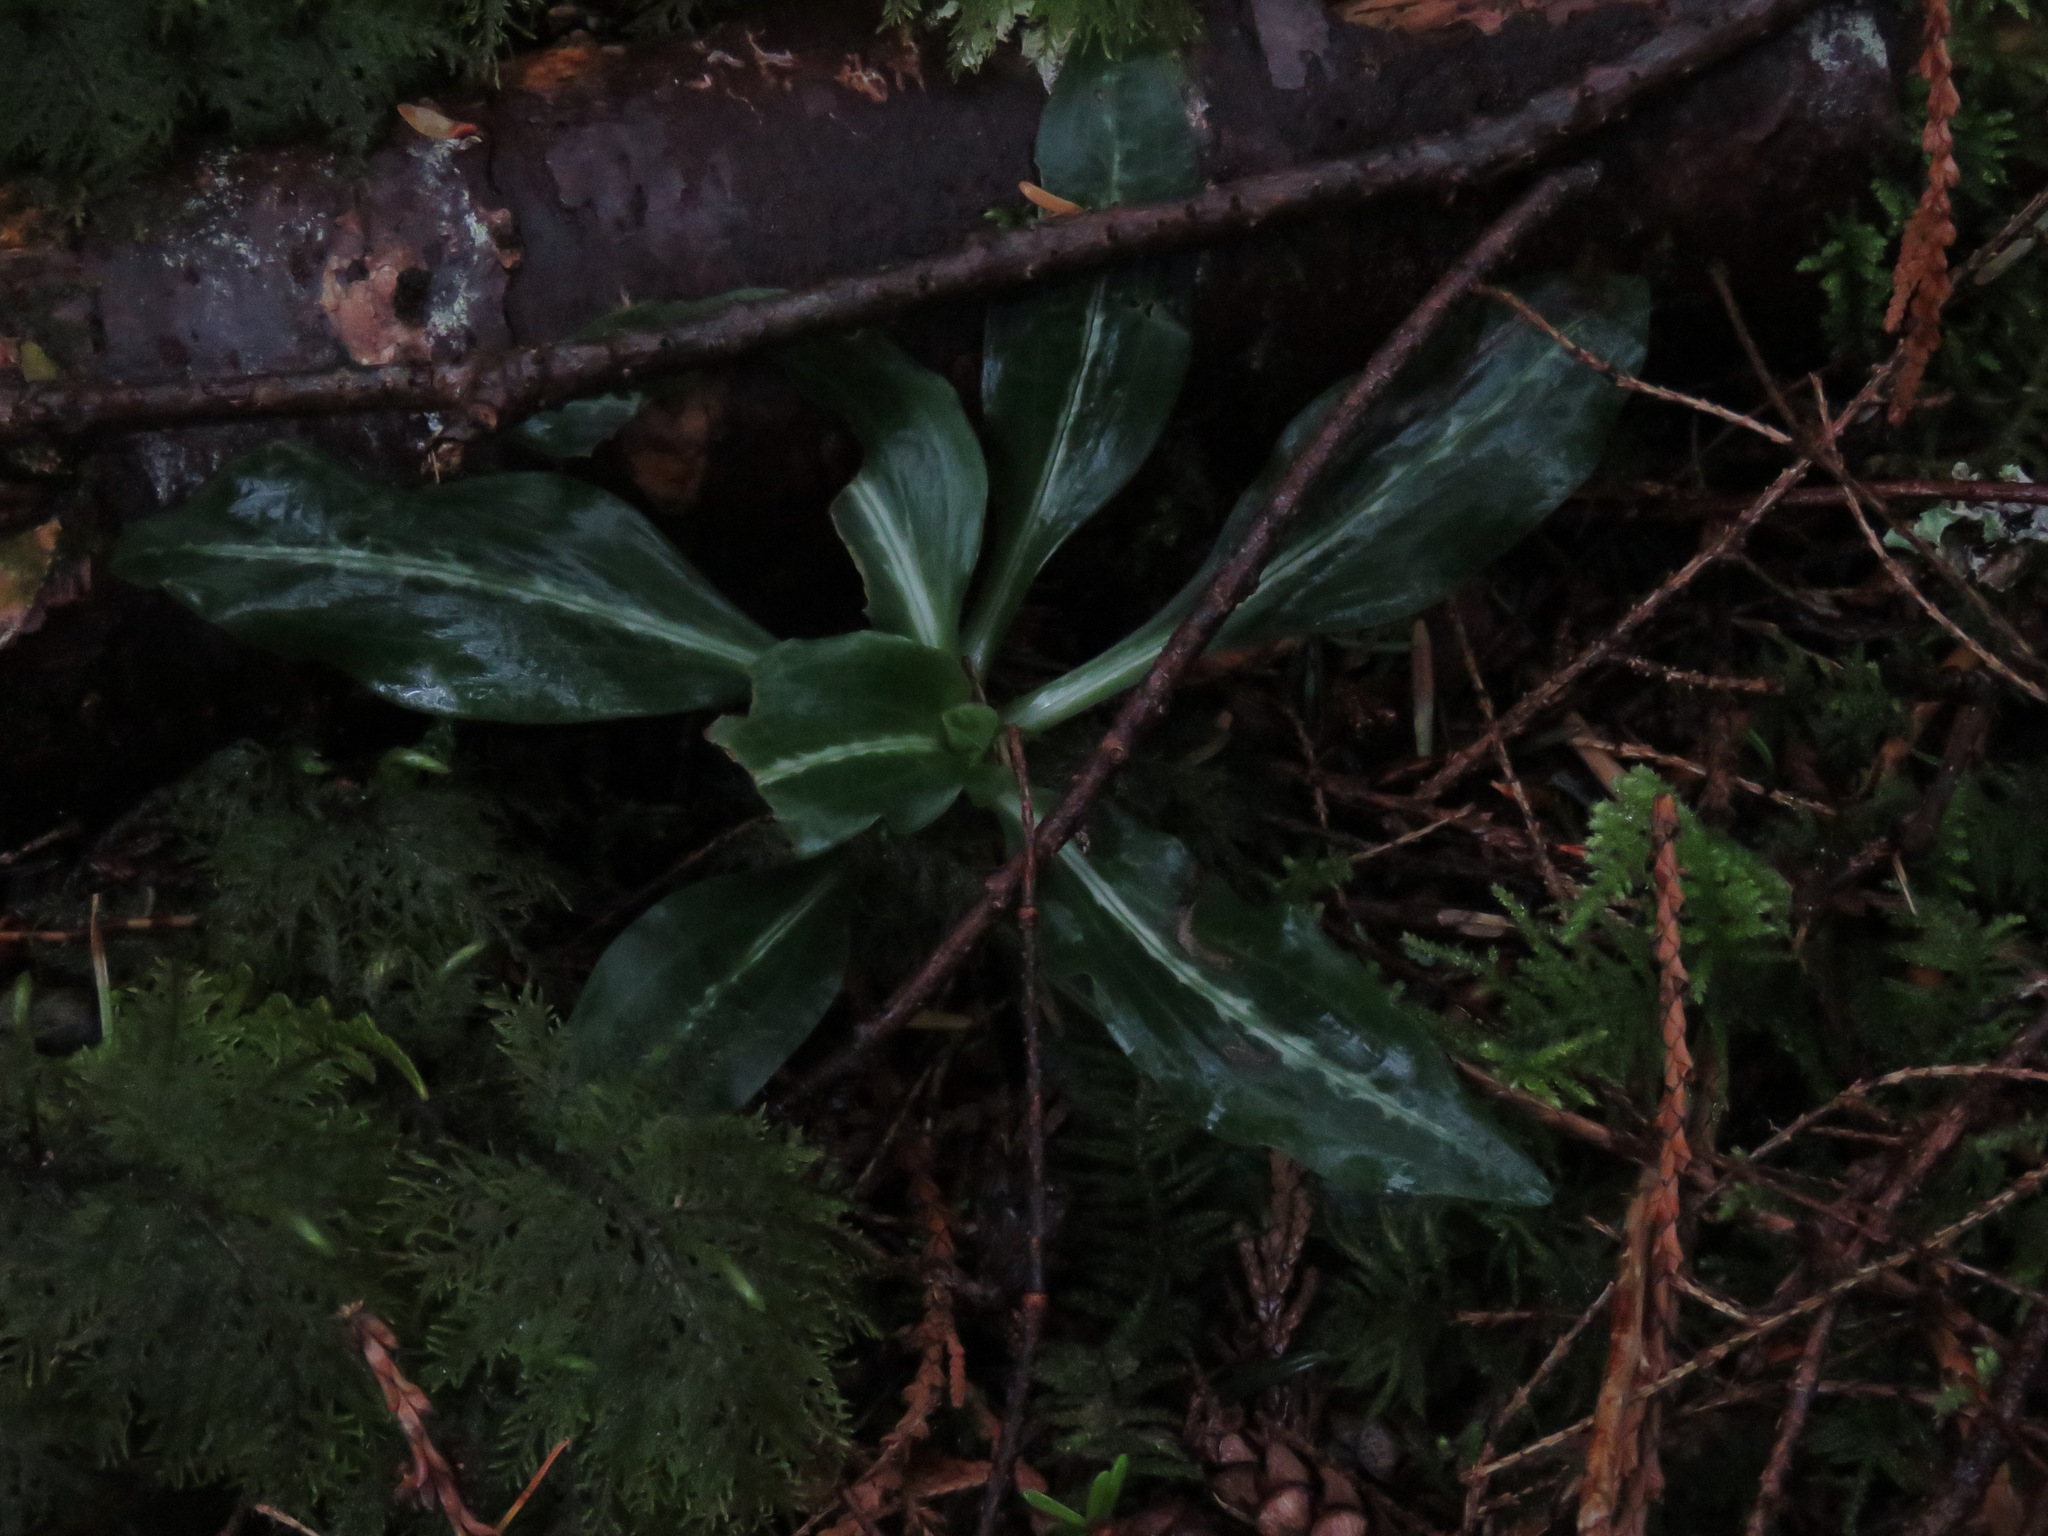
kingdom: Plantae
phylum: Tracheophyta
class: Liliopsida
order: Asparagales
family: Orchidaceae
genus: Goodyera
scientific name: Goodyera oblongifolia
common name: Giant rattlesnake-plantain
